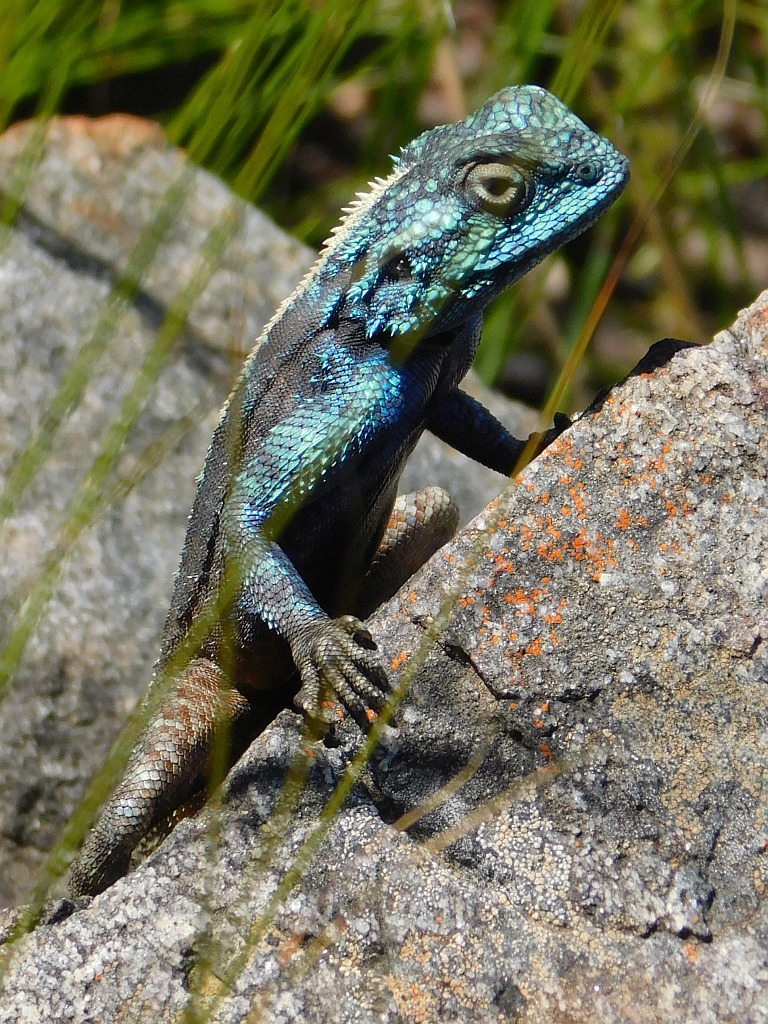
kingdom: Animalia
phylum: Chordata
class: Squamata
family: Agamidae
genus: Agama
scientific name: Agama atra
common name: Southern african rock agama
